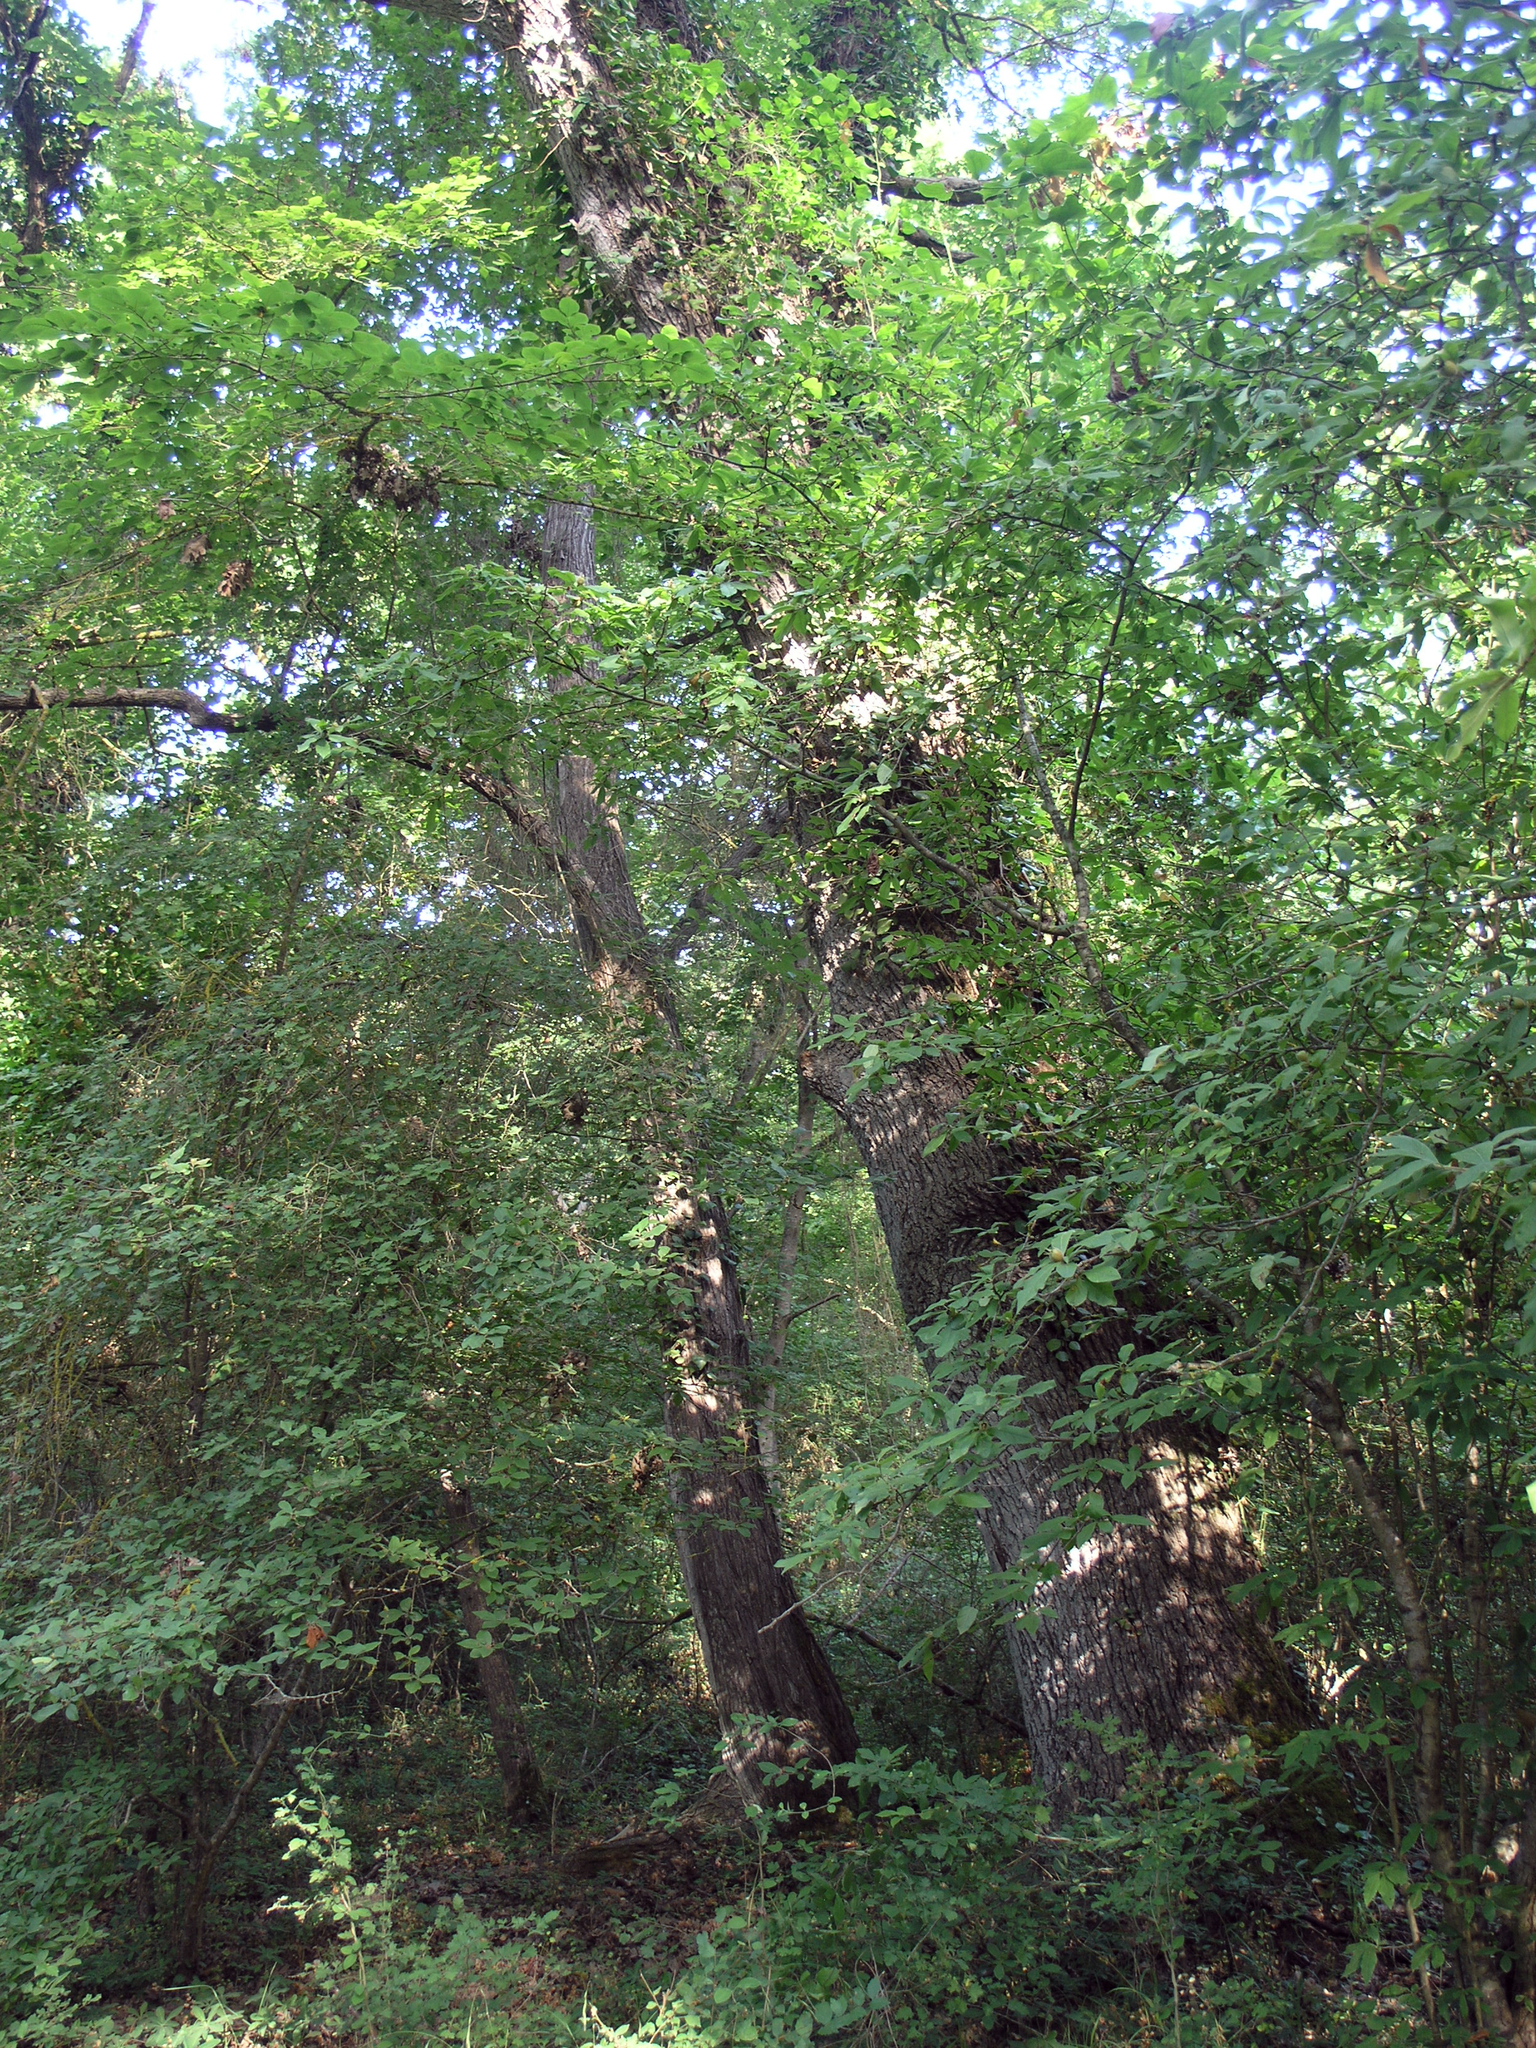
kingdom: Plantae
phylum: Tracheophyta
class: Magnoliopsida
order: Malpighiales
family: Salicaceae
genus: Populus
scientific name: Populus nigra
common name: Black poplar
